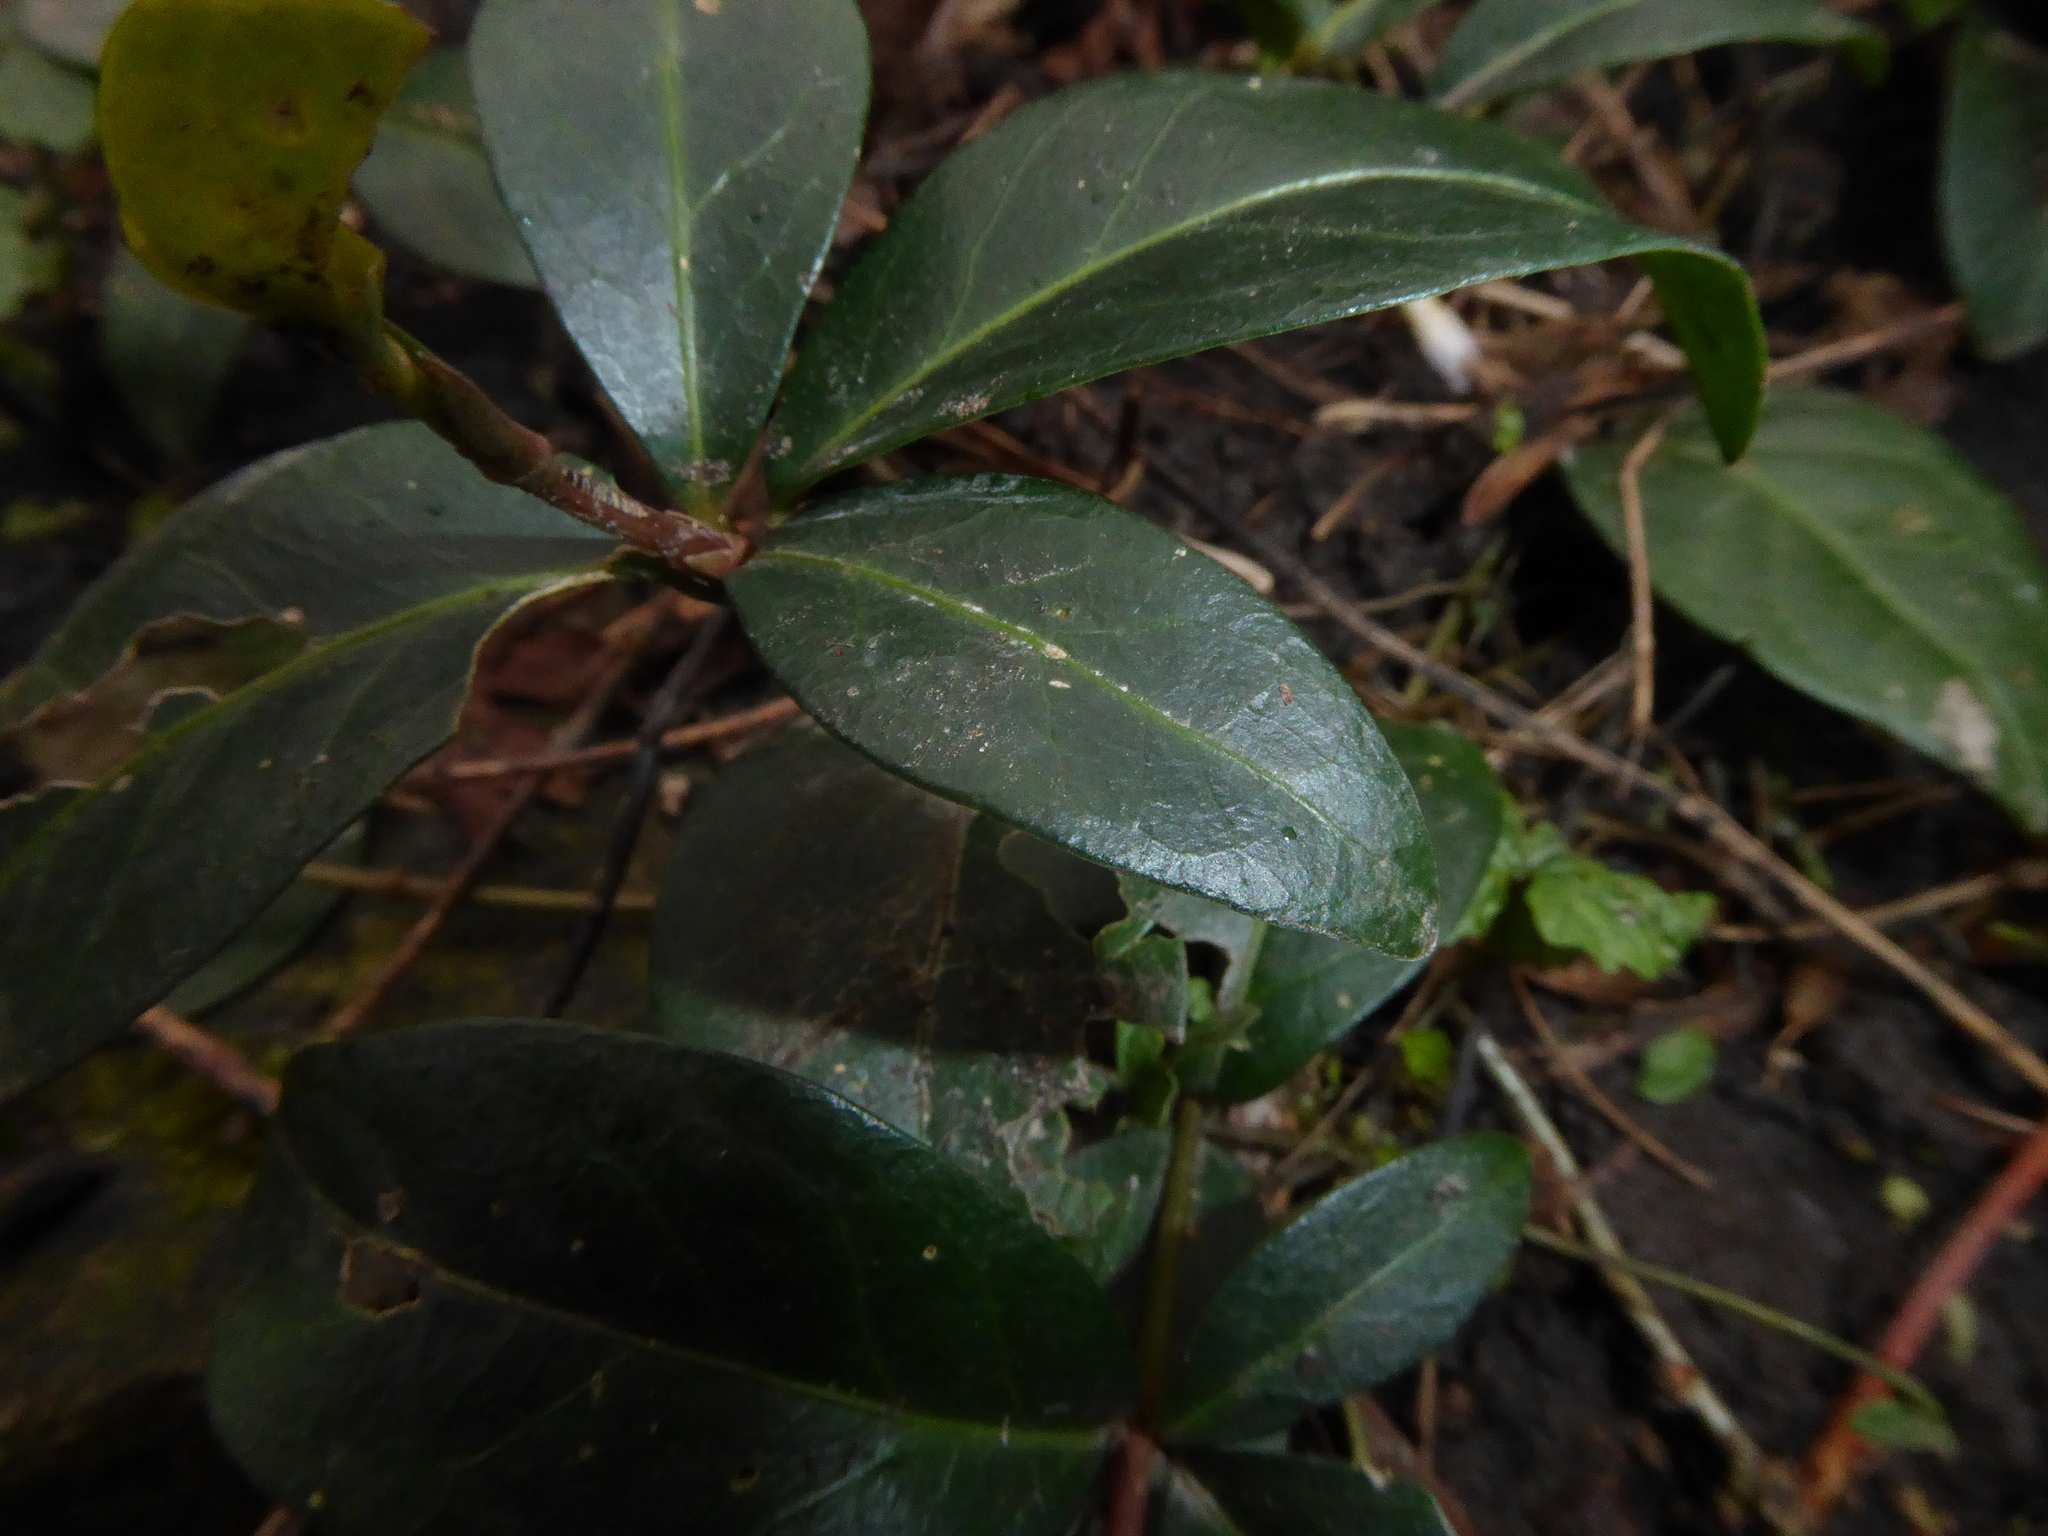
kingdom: Plantae
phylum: Tracheophyta
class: Magnoliopsida
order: Gentianales
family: Apocynaceae
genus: Vinca
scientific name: Vinca minor
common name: Lesser periwinkle
